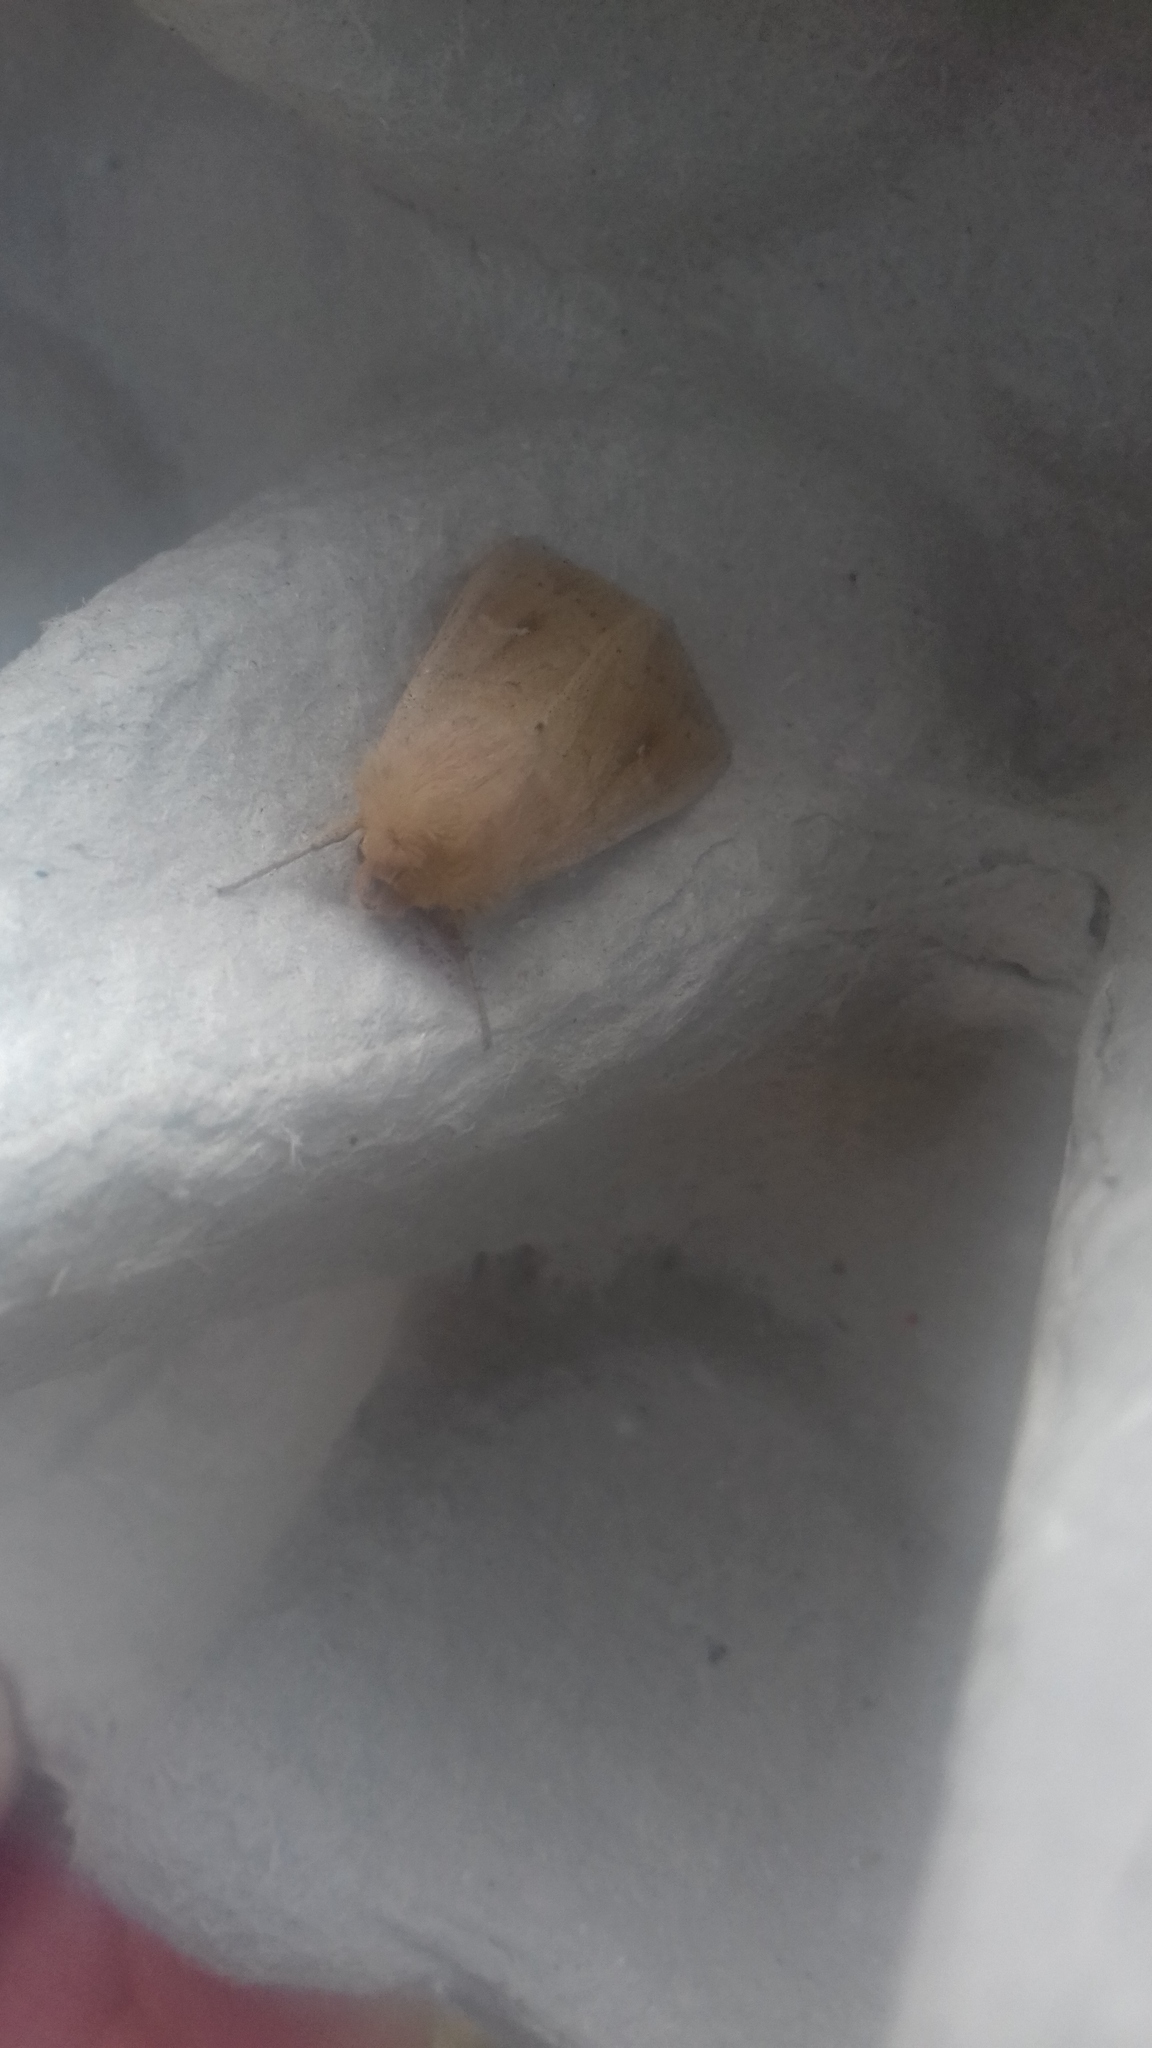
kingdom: Animalia
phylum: Arthropoda
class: Insecta
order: Lepidoptera
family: Noctuidae
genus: Mythimna
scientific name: Mythimna ferrago
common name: Clay
